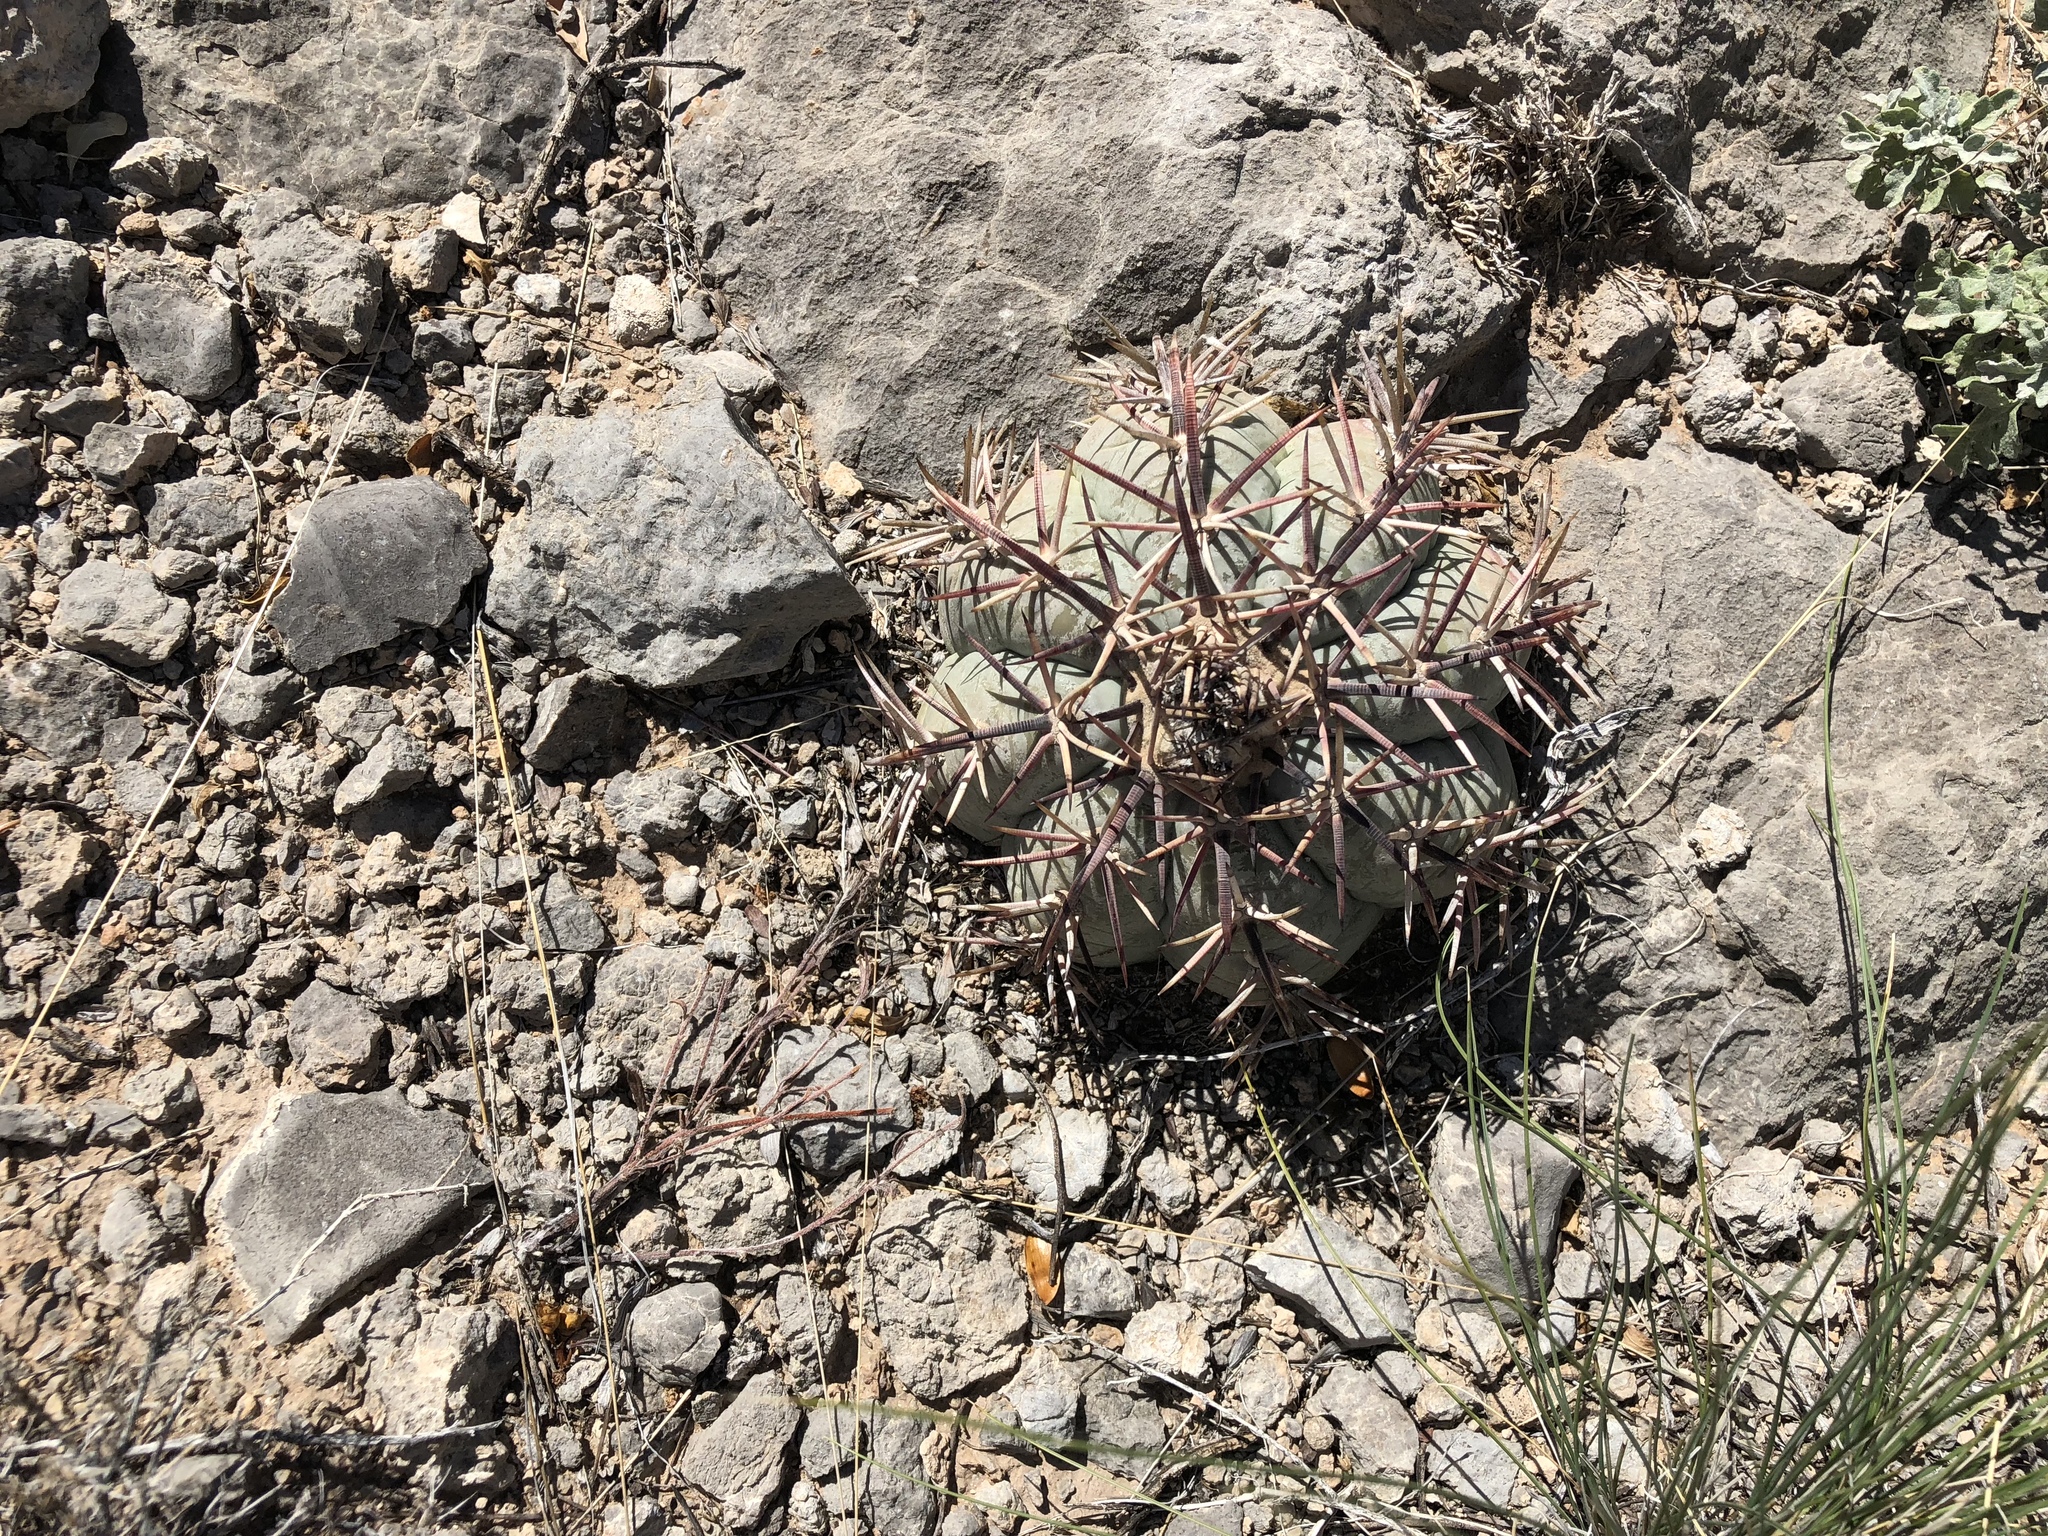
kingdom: Plantae
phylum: Tracheophyta
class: Magnoliopsida
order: Caryophyllales
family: Cactaceae
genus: Echinocactus
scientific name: Echinocactus horizonthalonius
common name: Devilshead
